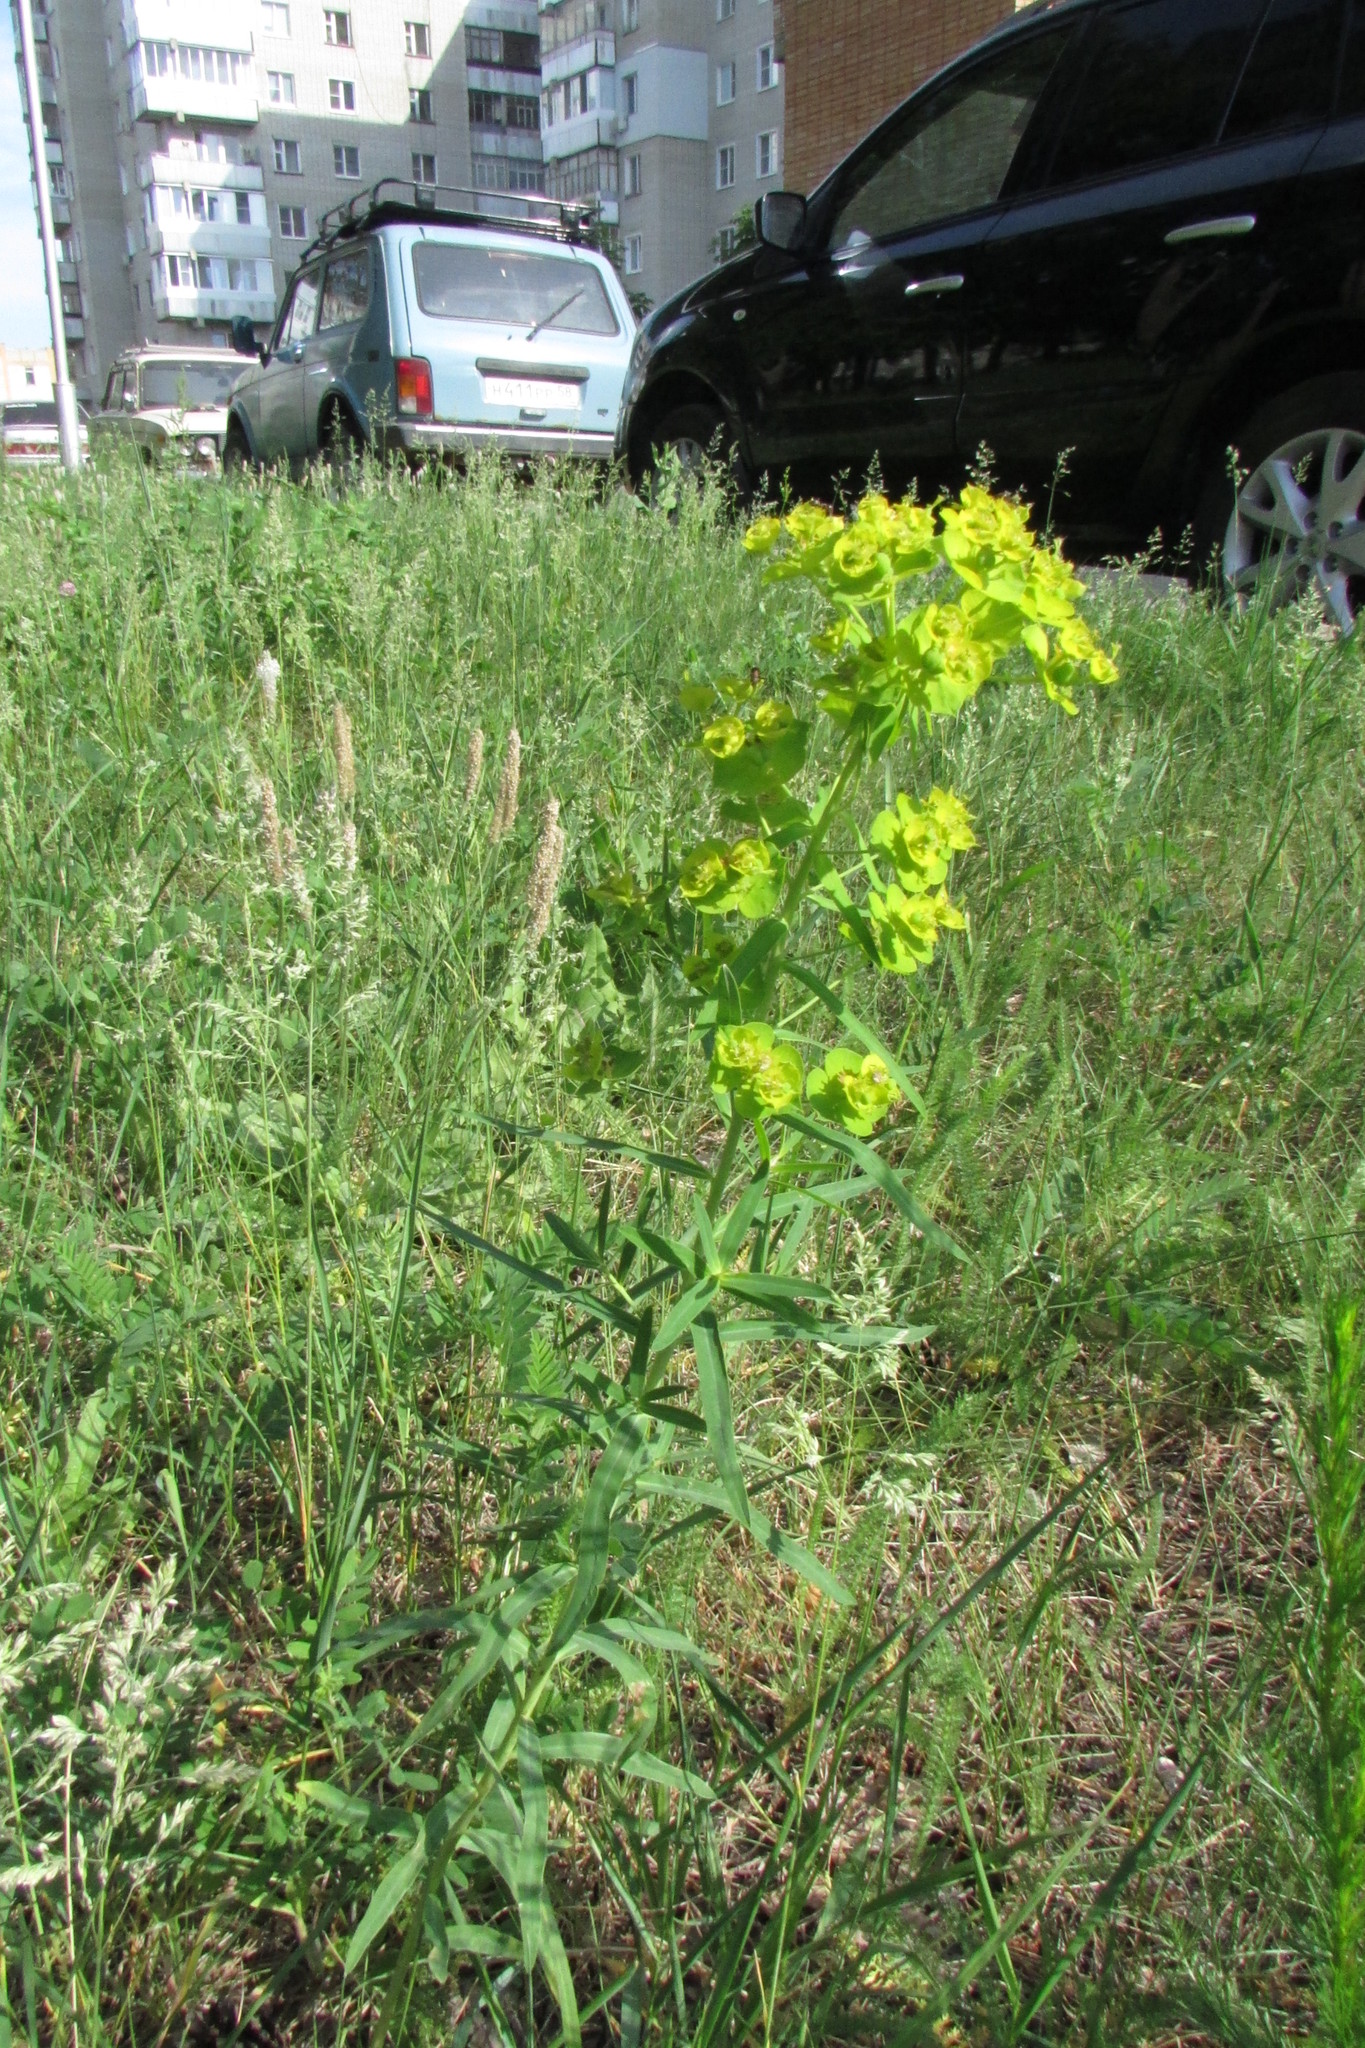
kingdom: Plantae
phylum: Tracheophyta
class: Magnoliopsida
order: Malpighiales
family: Euphorbiaceae
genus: Euphorbia
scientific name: Euphorbia virgata
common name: Leafy spurge
